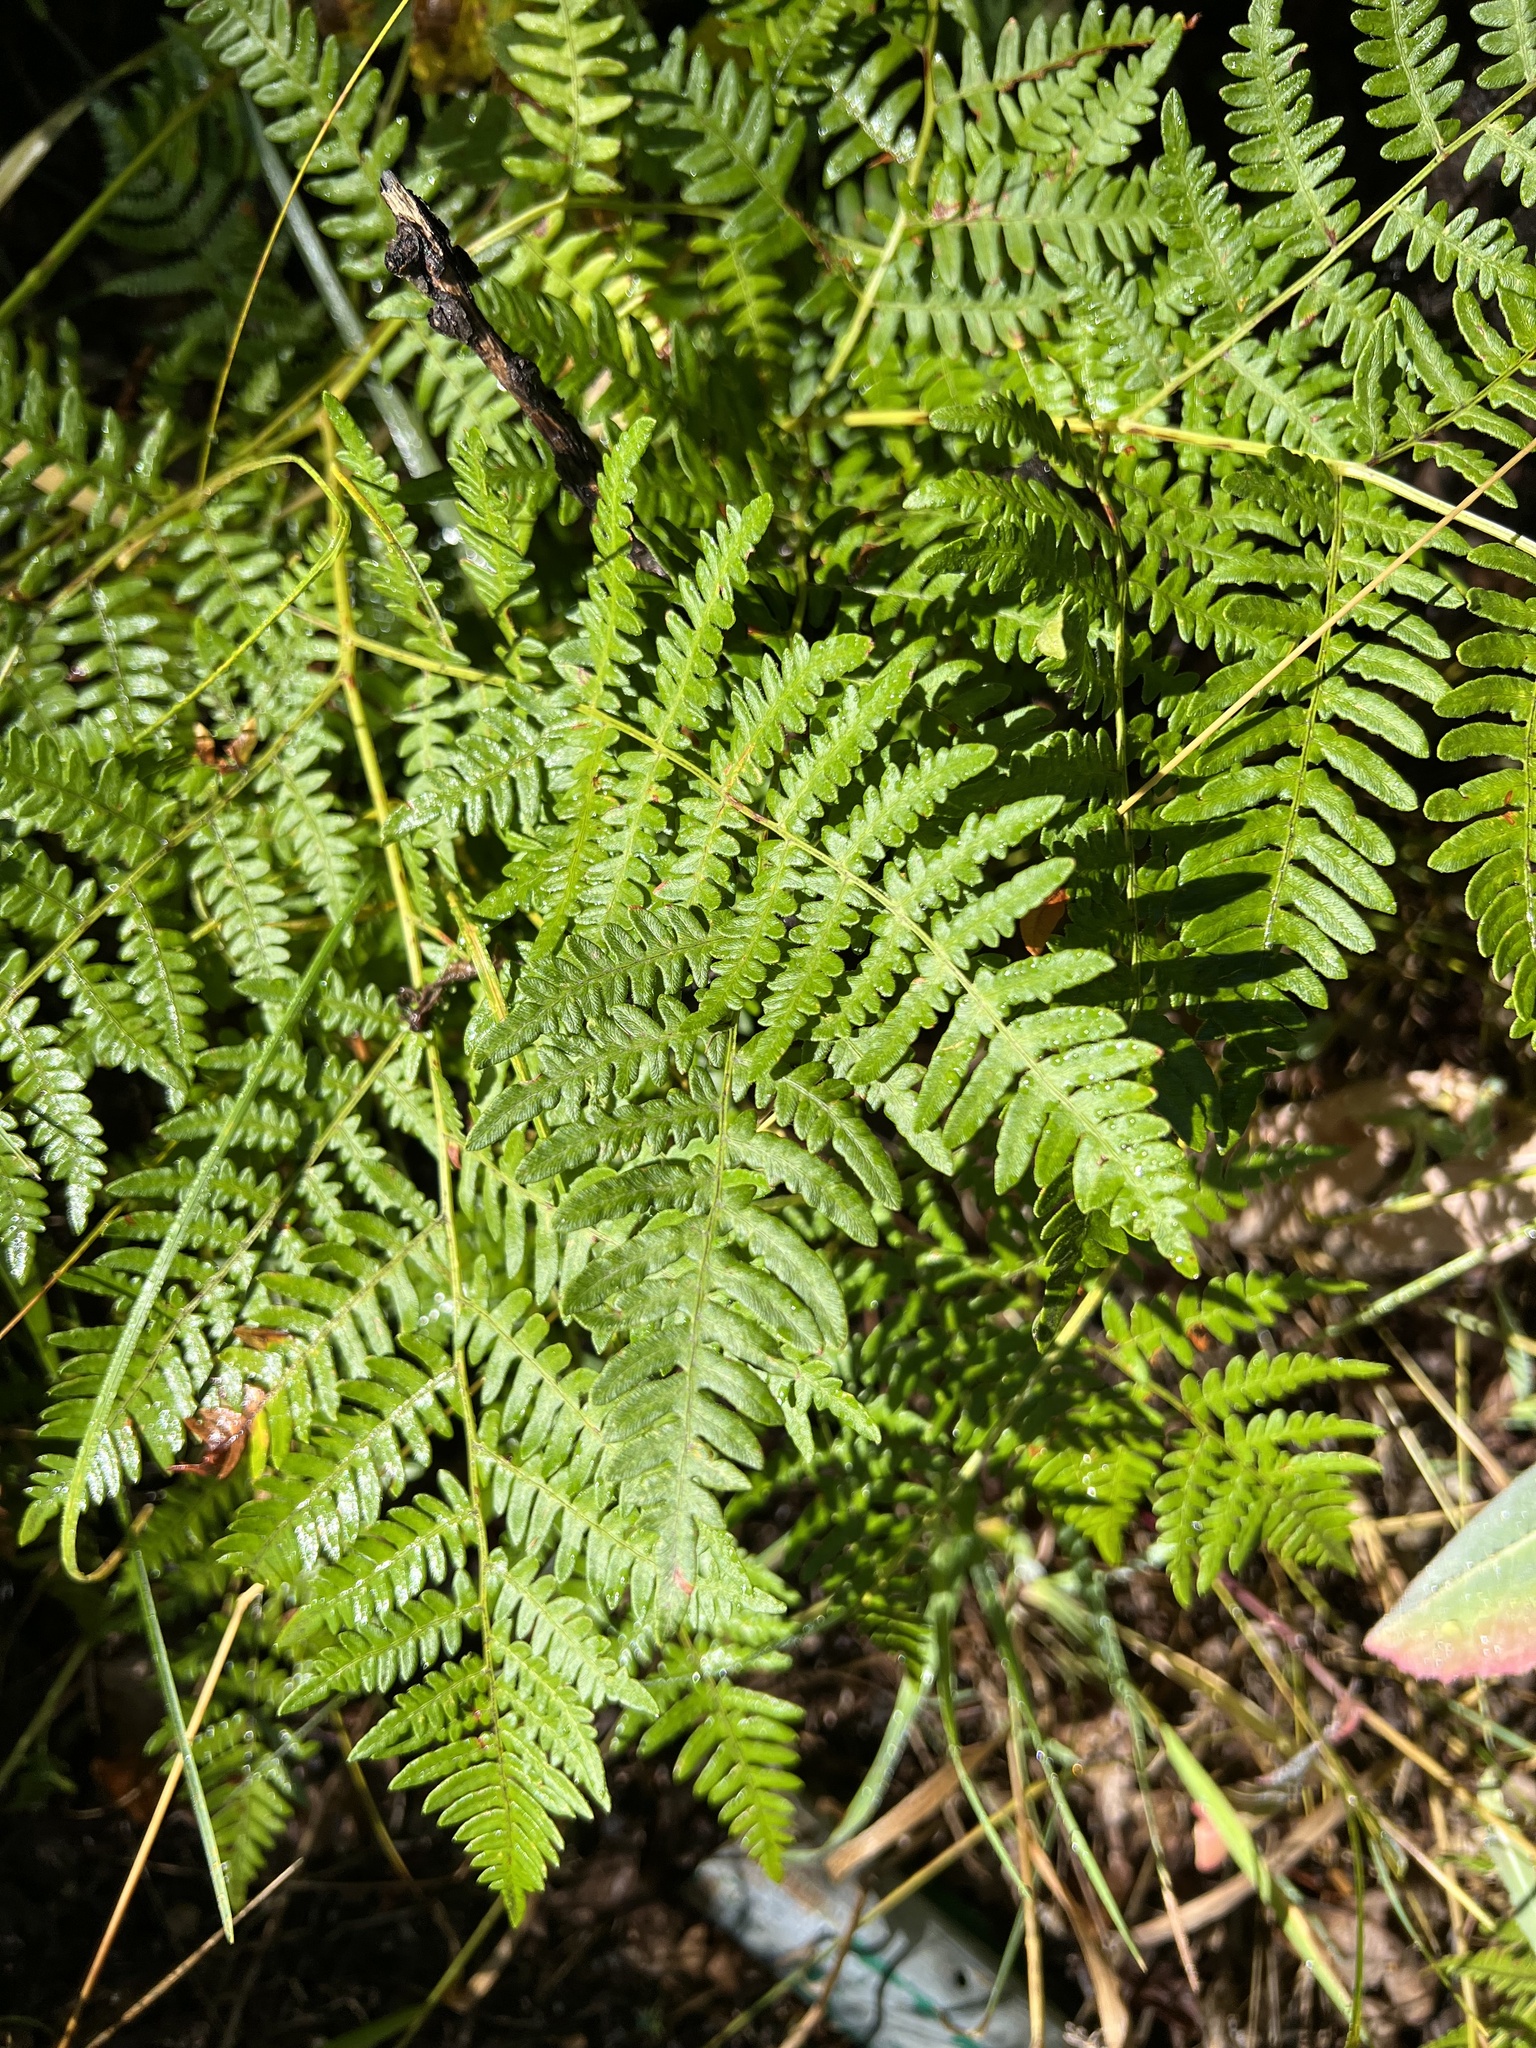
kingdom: Plantae
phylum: Tracheophyta
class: Polypodiopsida
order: Polypodiales
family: Dennstaedtiaceae
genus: Pteridium
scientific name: Pteridium aquilinum
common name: Bracken
